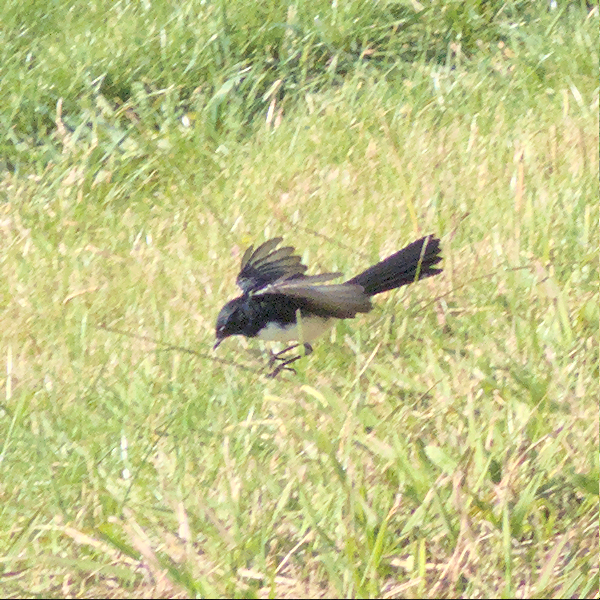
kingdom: Animalia
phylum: Chordata
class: Aves
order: Passeriformes
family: Rhipiduridae
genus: Rhipidura
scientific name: Rhipidura leucophrys
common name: Willie wagtail
